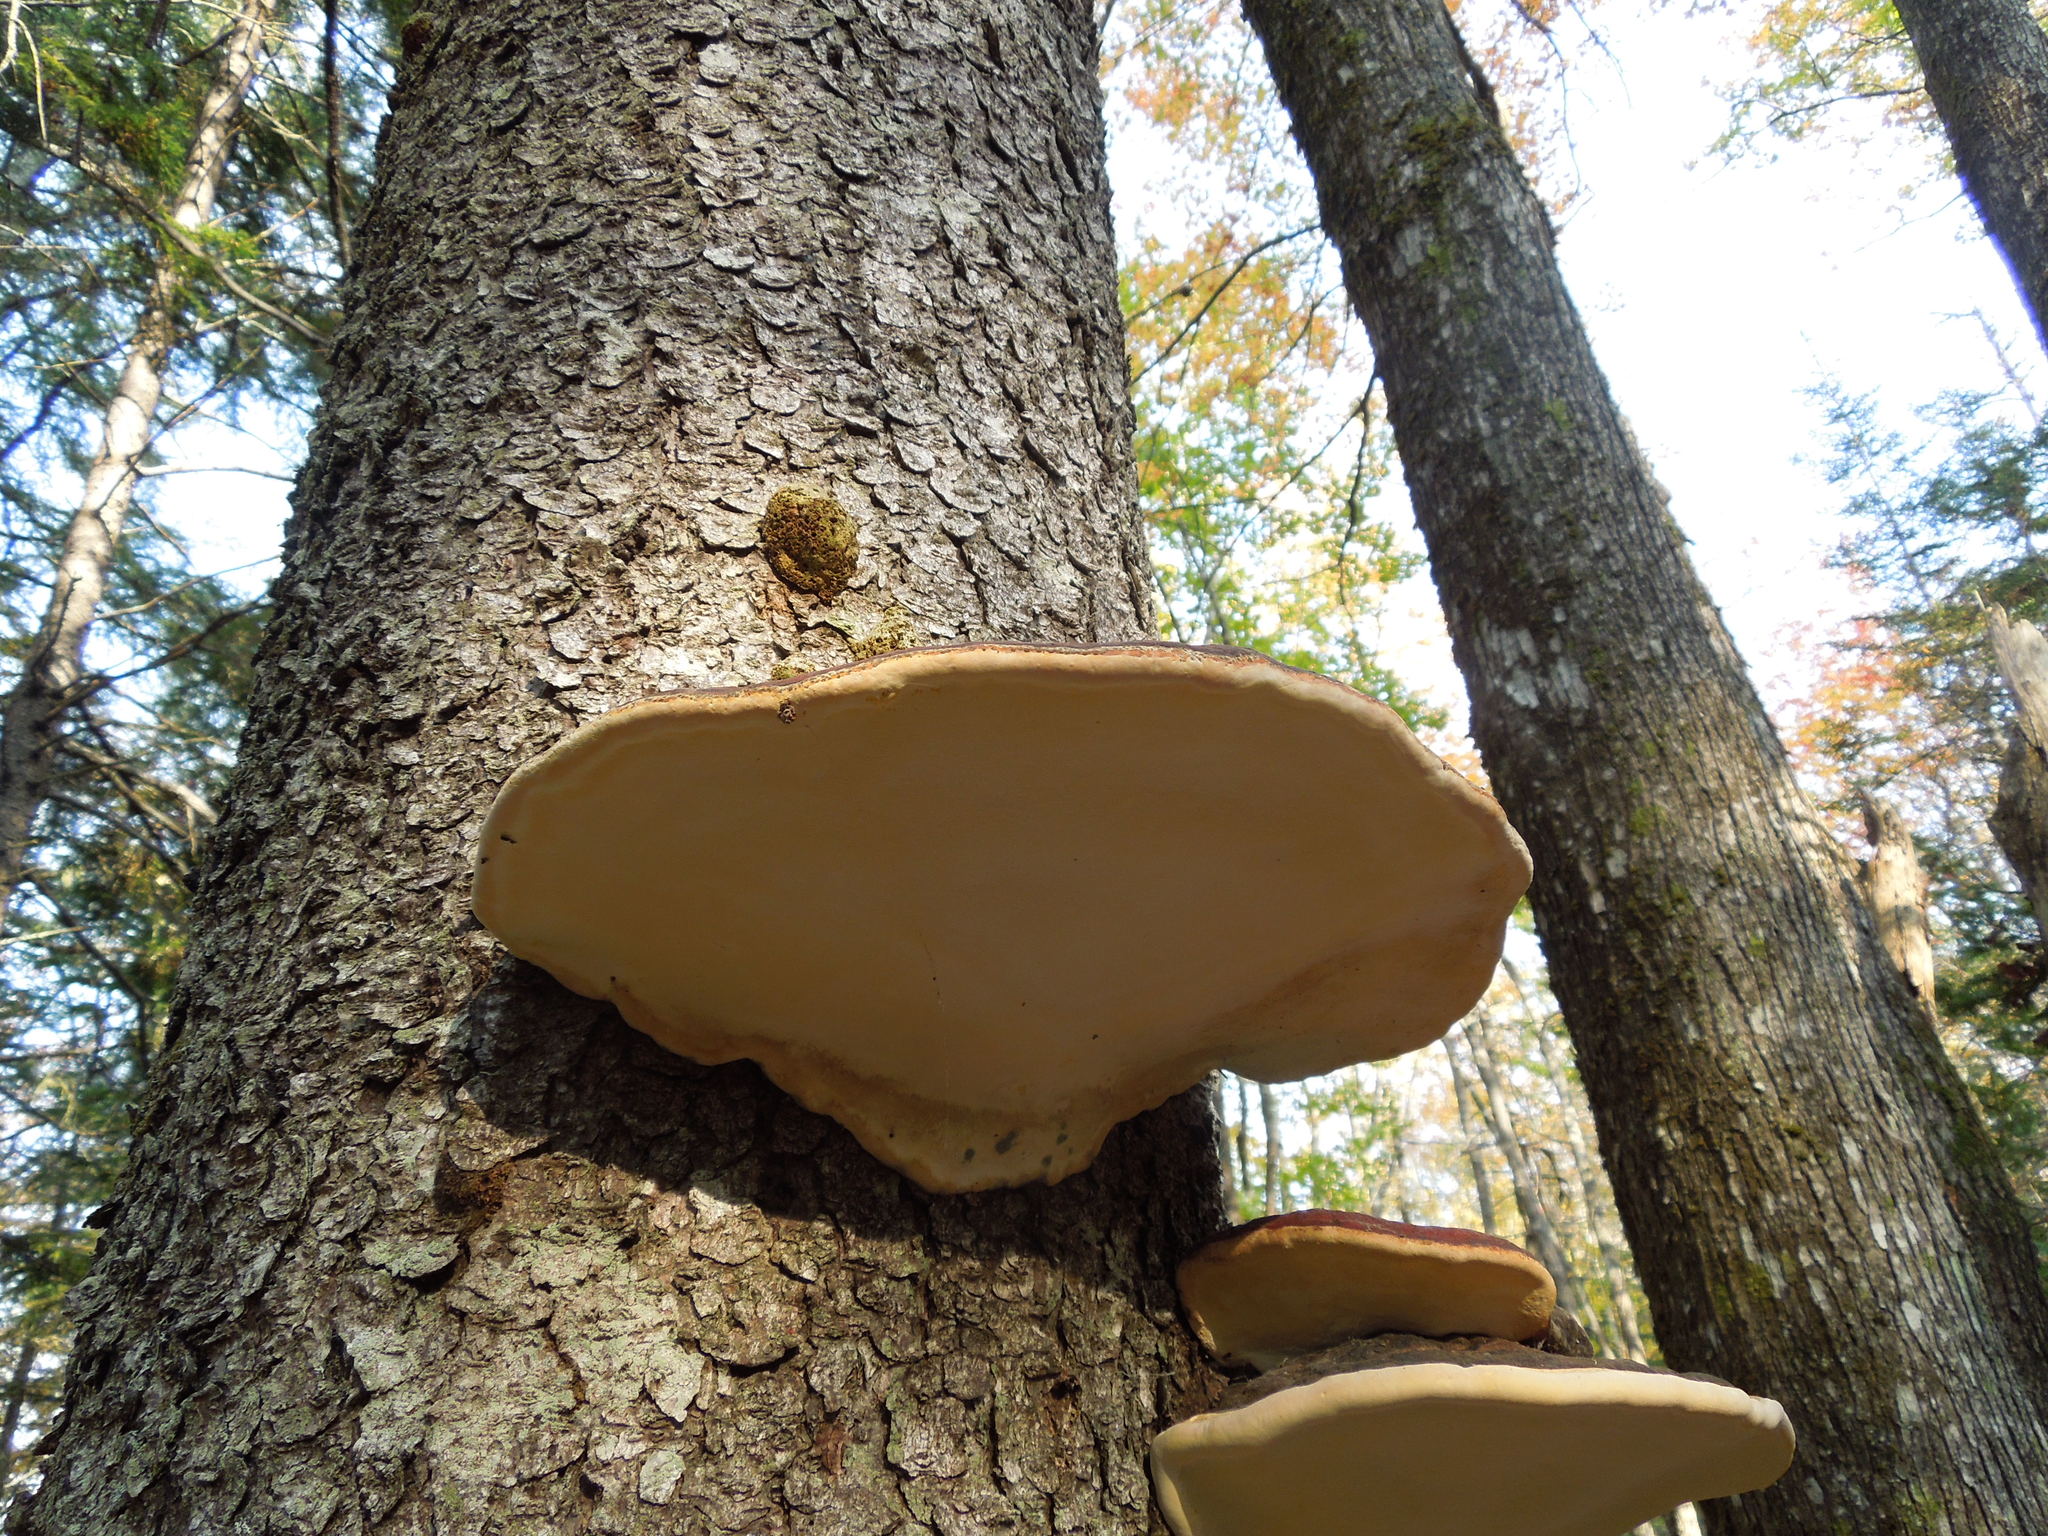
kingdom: Fungi
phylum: Basidiomycota
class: Agaricomycetes
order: Polyporales
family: Fomitopsidaceae
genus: Fomitopsis
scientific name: Fomitopsis mounceae
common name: Northern red belt
